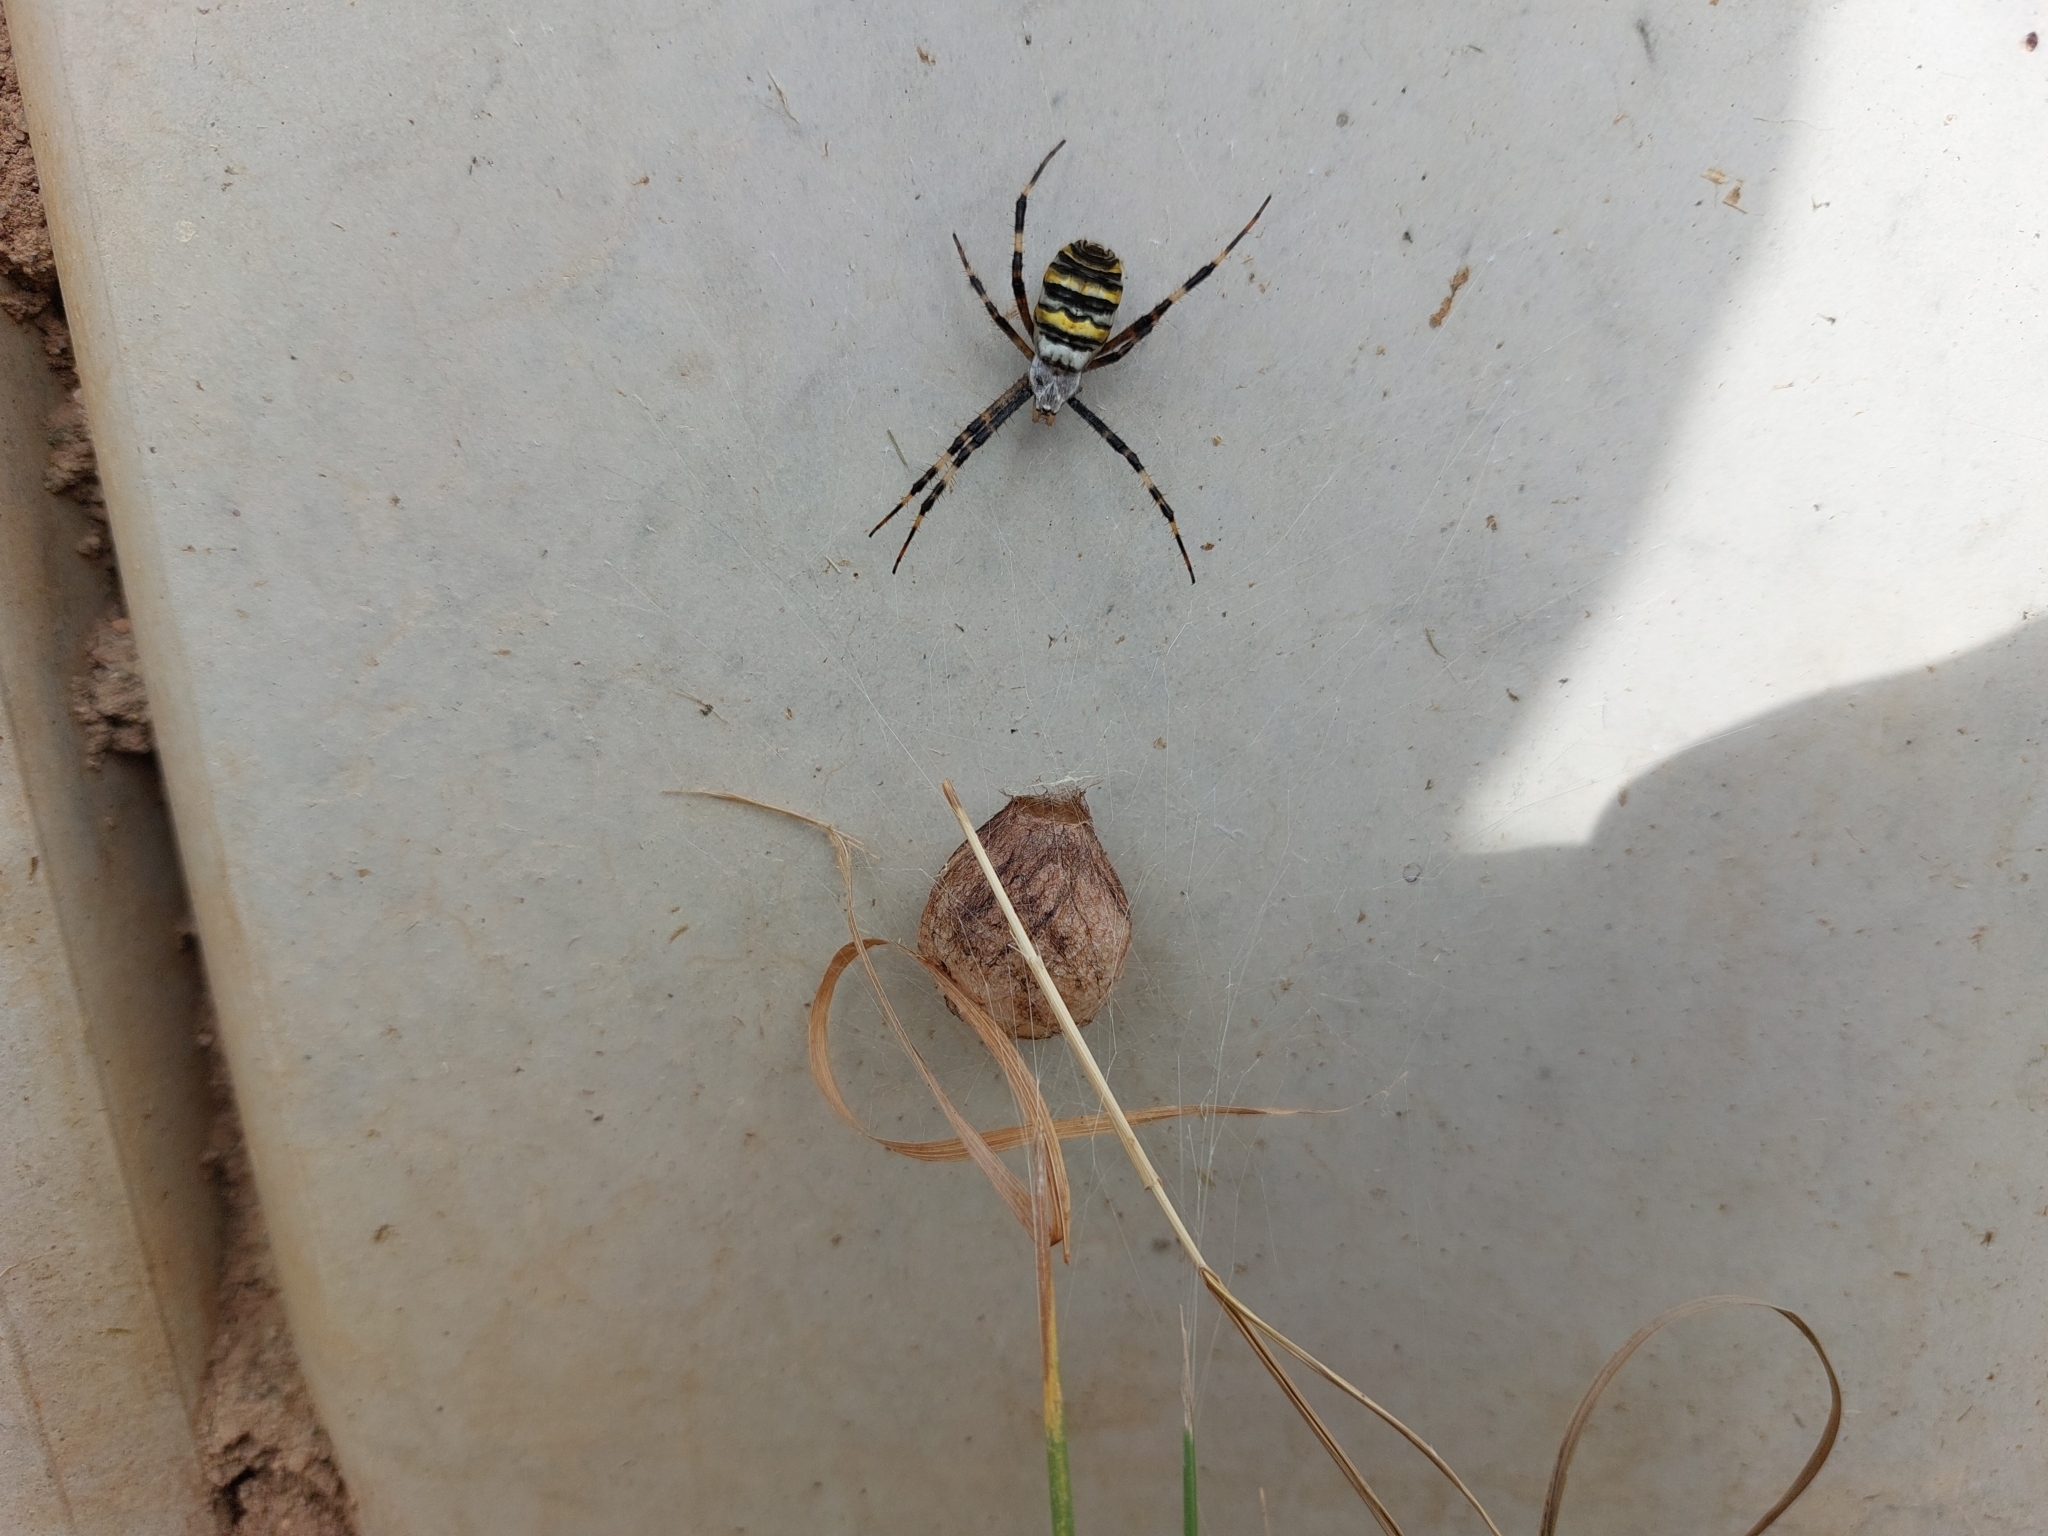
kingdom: Animalia
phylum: Arthropoda
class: Arachnida
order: Araneae
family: Araneidae
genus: Argiope
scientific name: Argiope bruennichi
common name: Wasp spider
